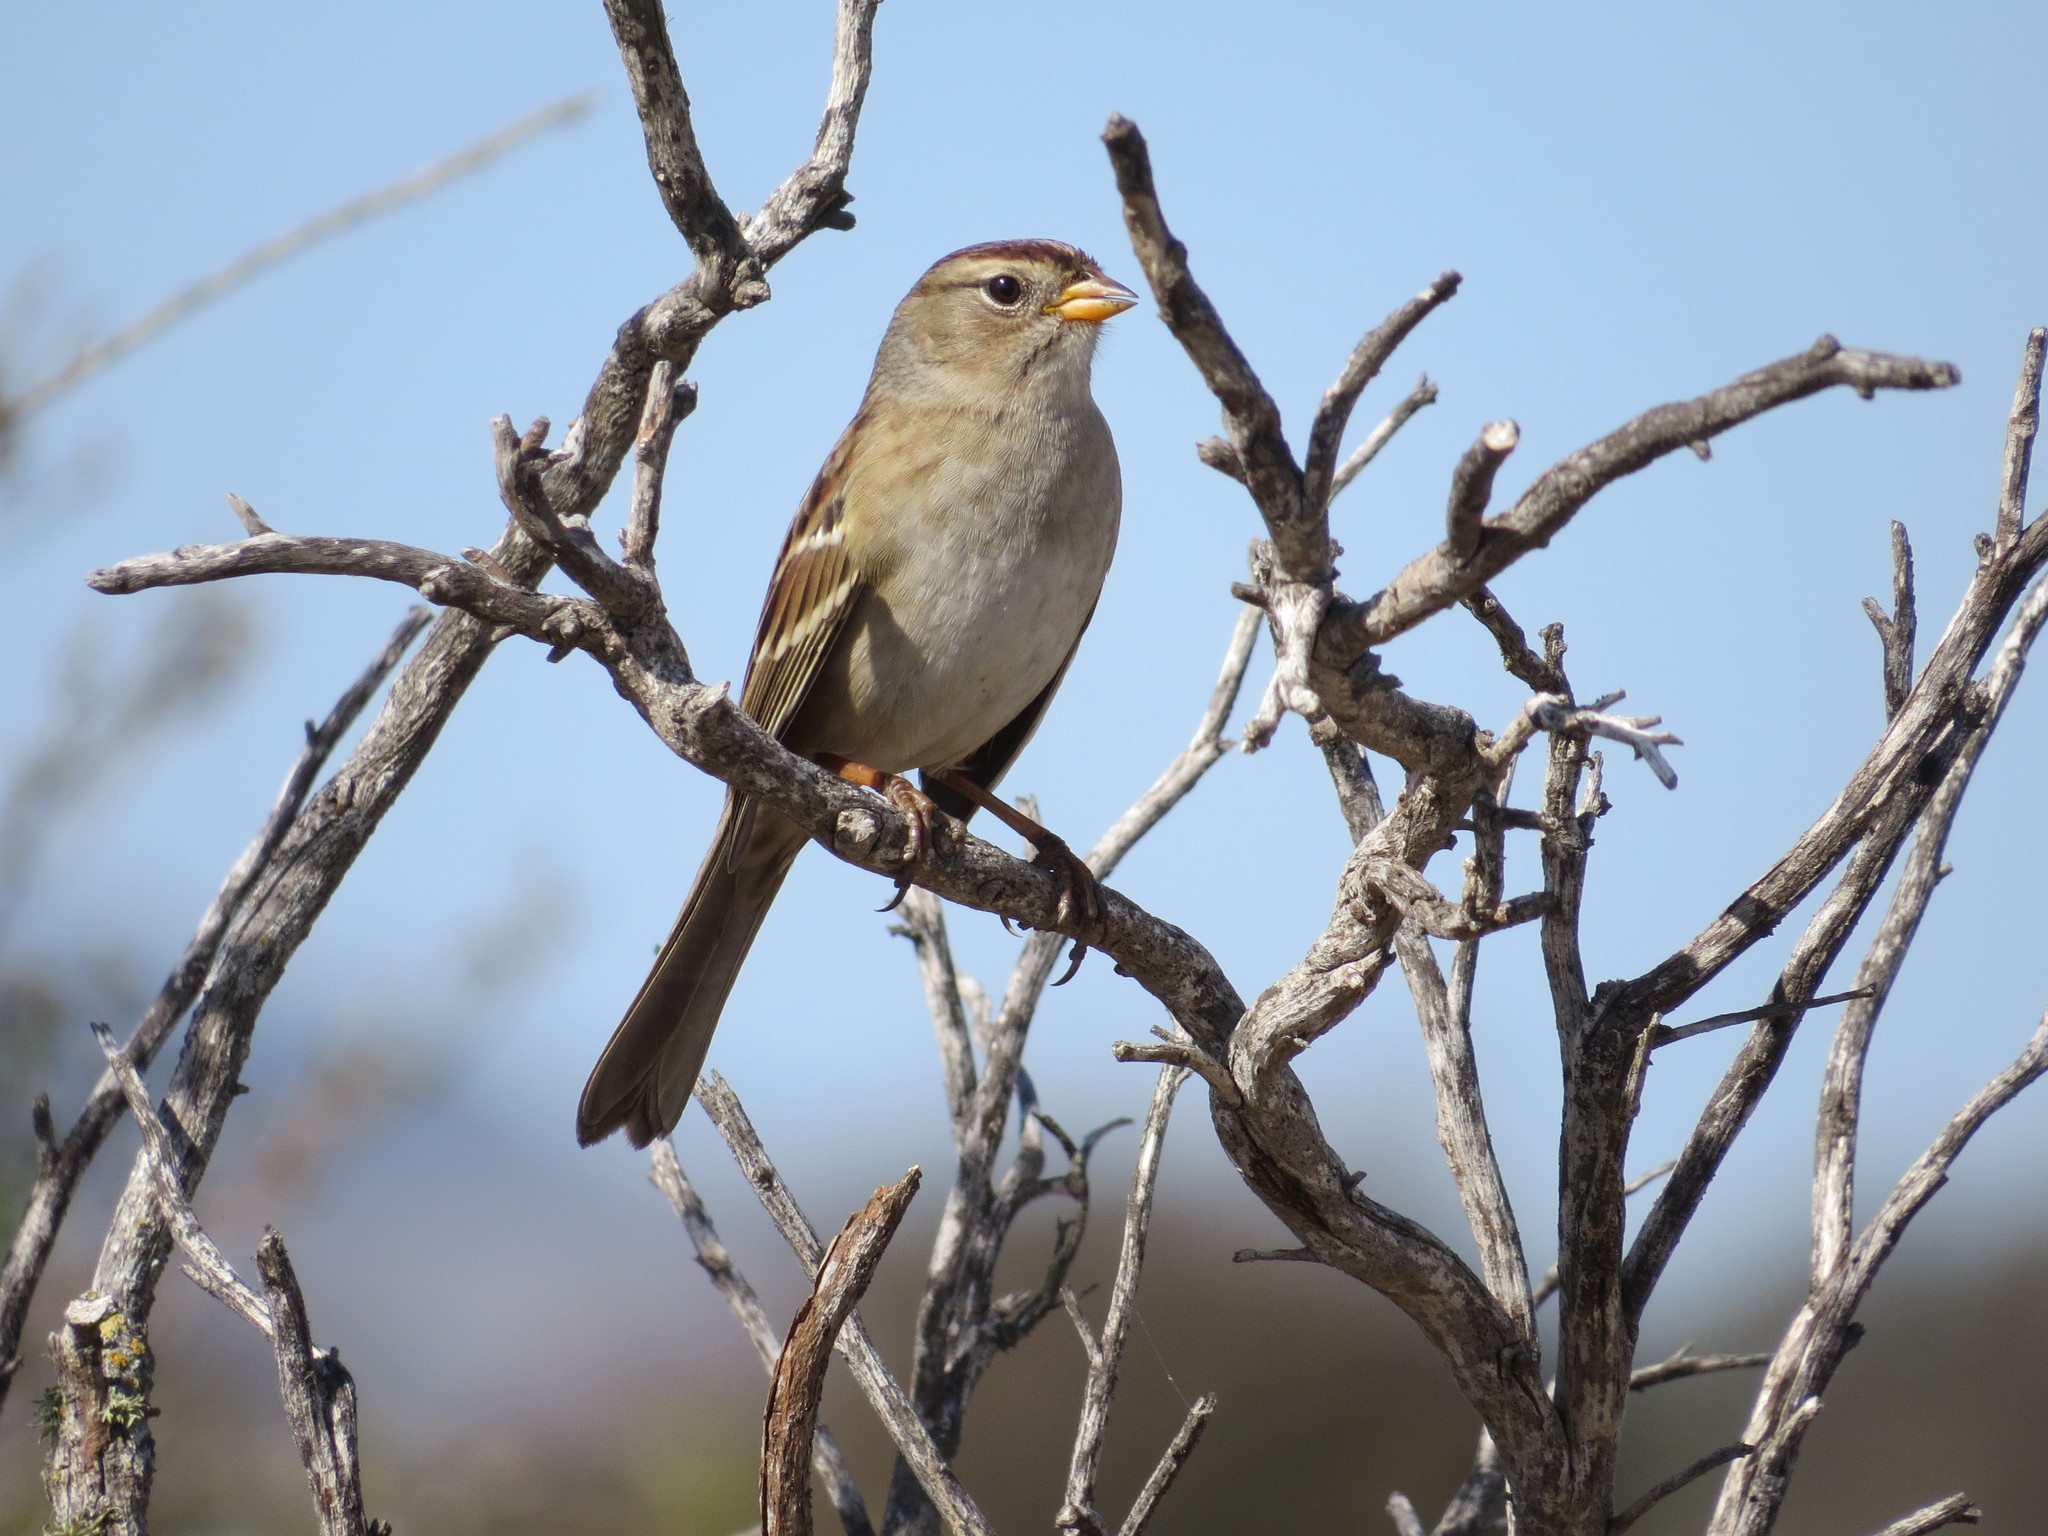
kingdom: Animalia
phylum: Chordata
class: Aves
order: Passeriformes
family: Passerellidae
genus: Zonotrichia
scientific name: Zonotrichia leucophrys
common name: White-crowned sparrow
